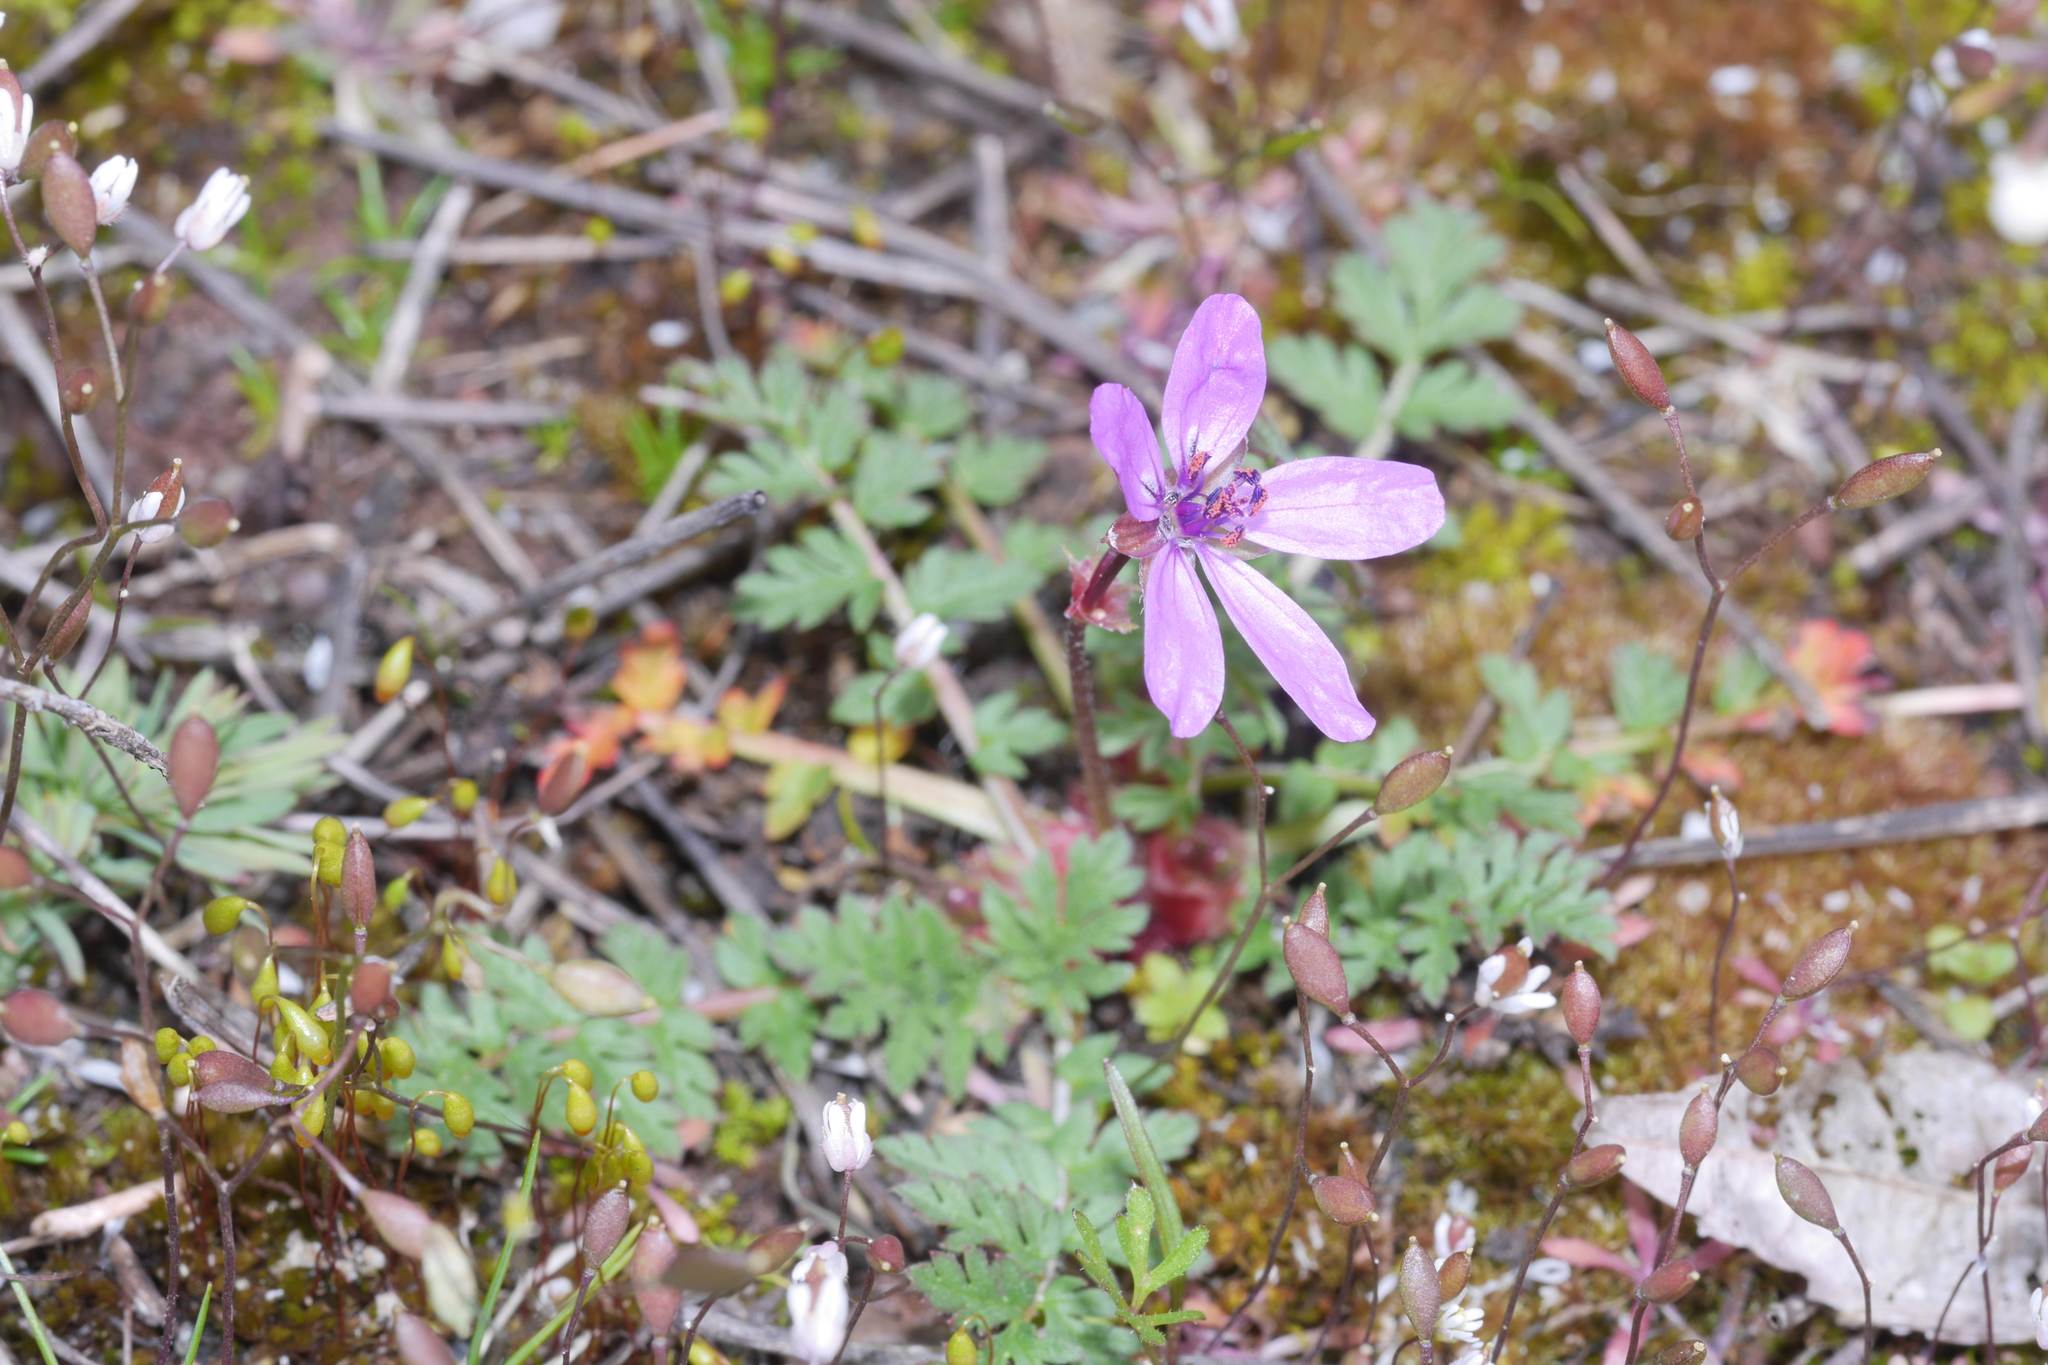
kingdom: Plantae
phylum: Tracheophyta
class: Magnoliopsida
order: Geraniales
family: Geraniaceae
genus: Erodium
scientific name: Erodium cicutarium
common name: Common stork's-bill
